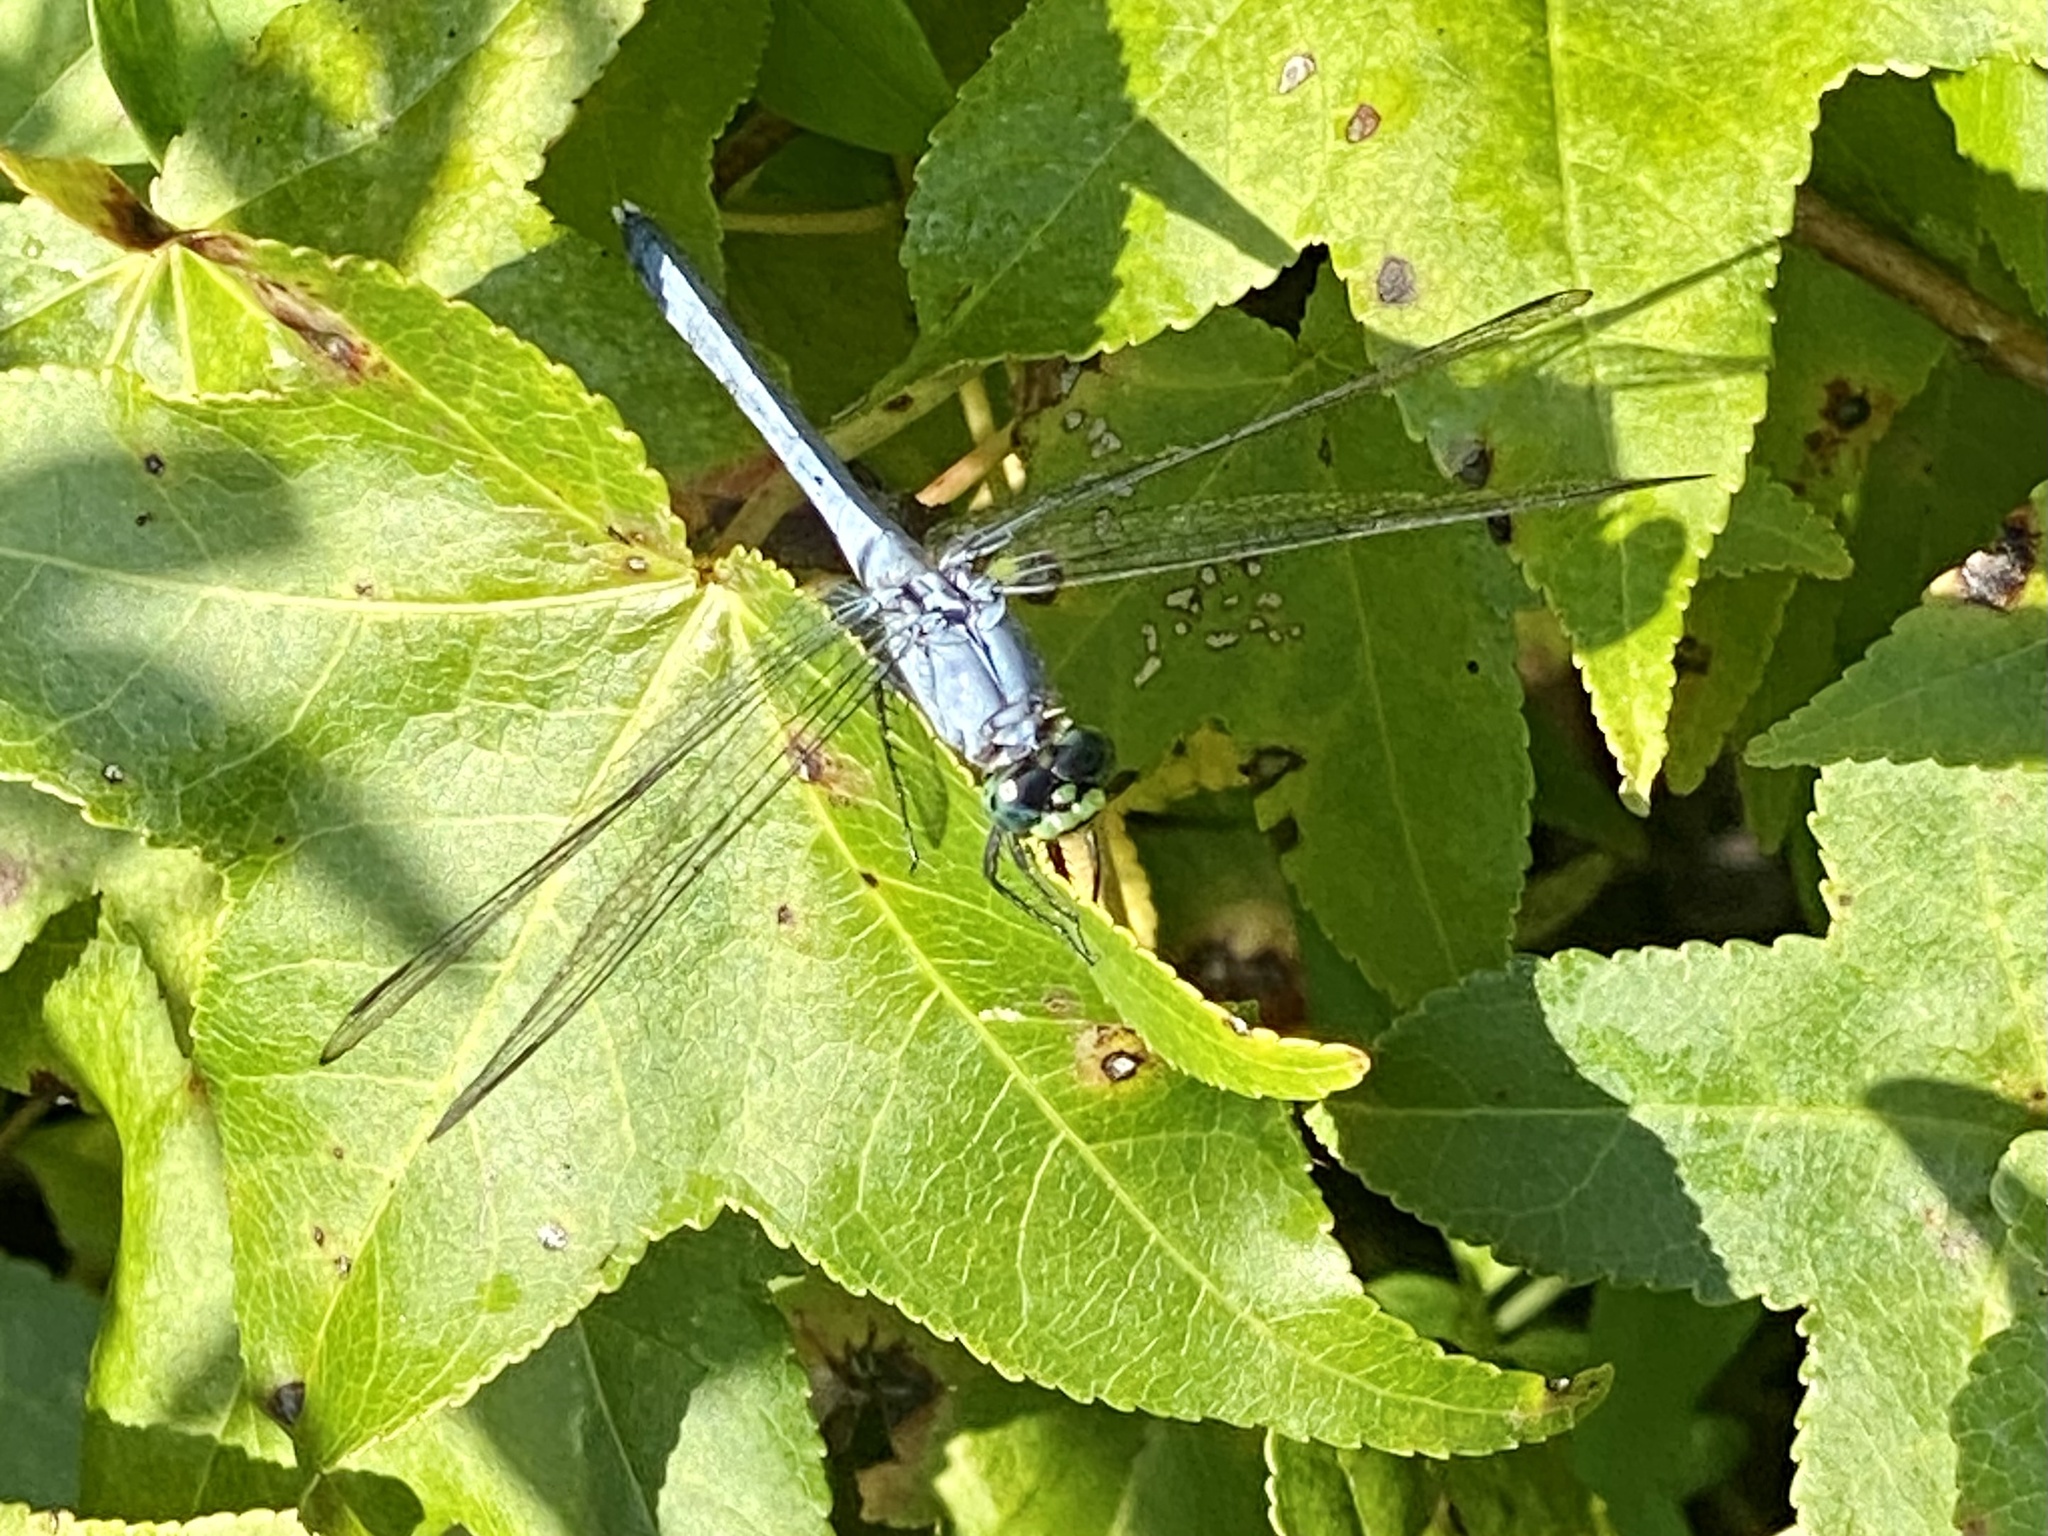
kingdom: Animalia
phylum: Arthropoda
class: Insecta
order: Odonata
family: Libellulidae
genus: Erythemis
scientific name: Erythemis simplicicollis
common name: Eastern pondhawk
